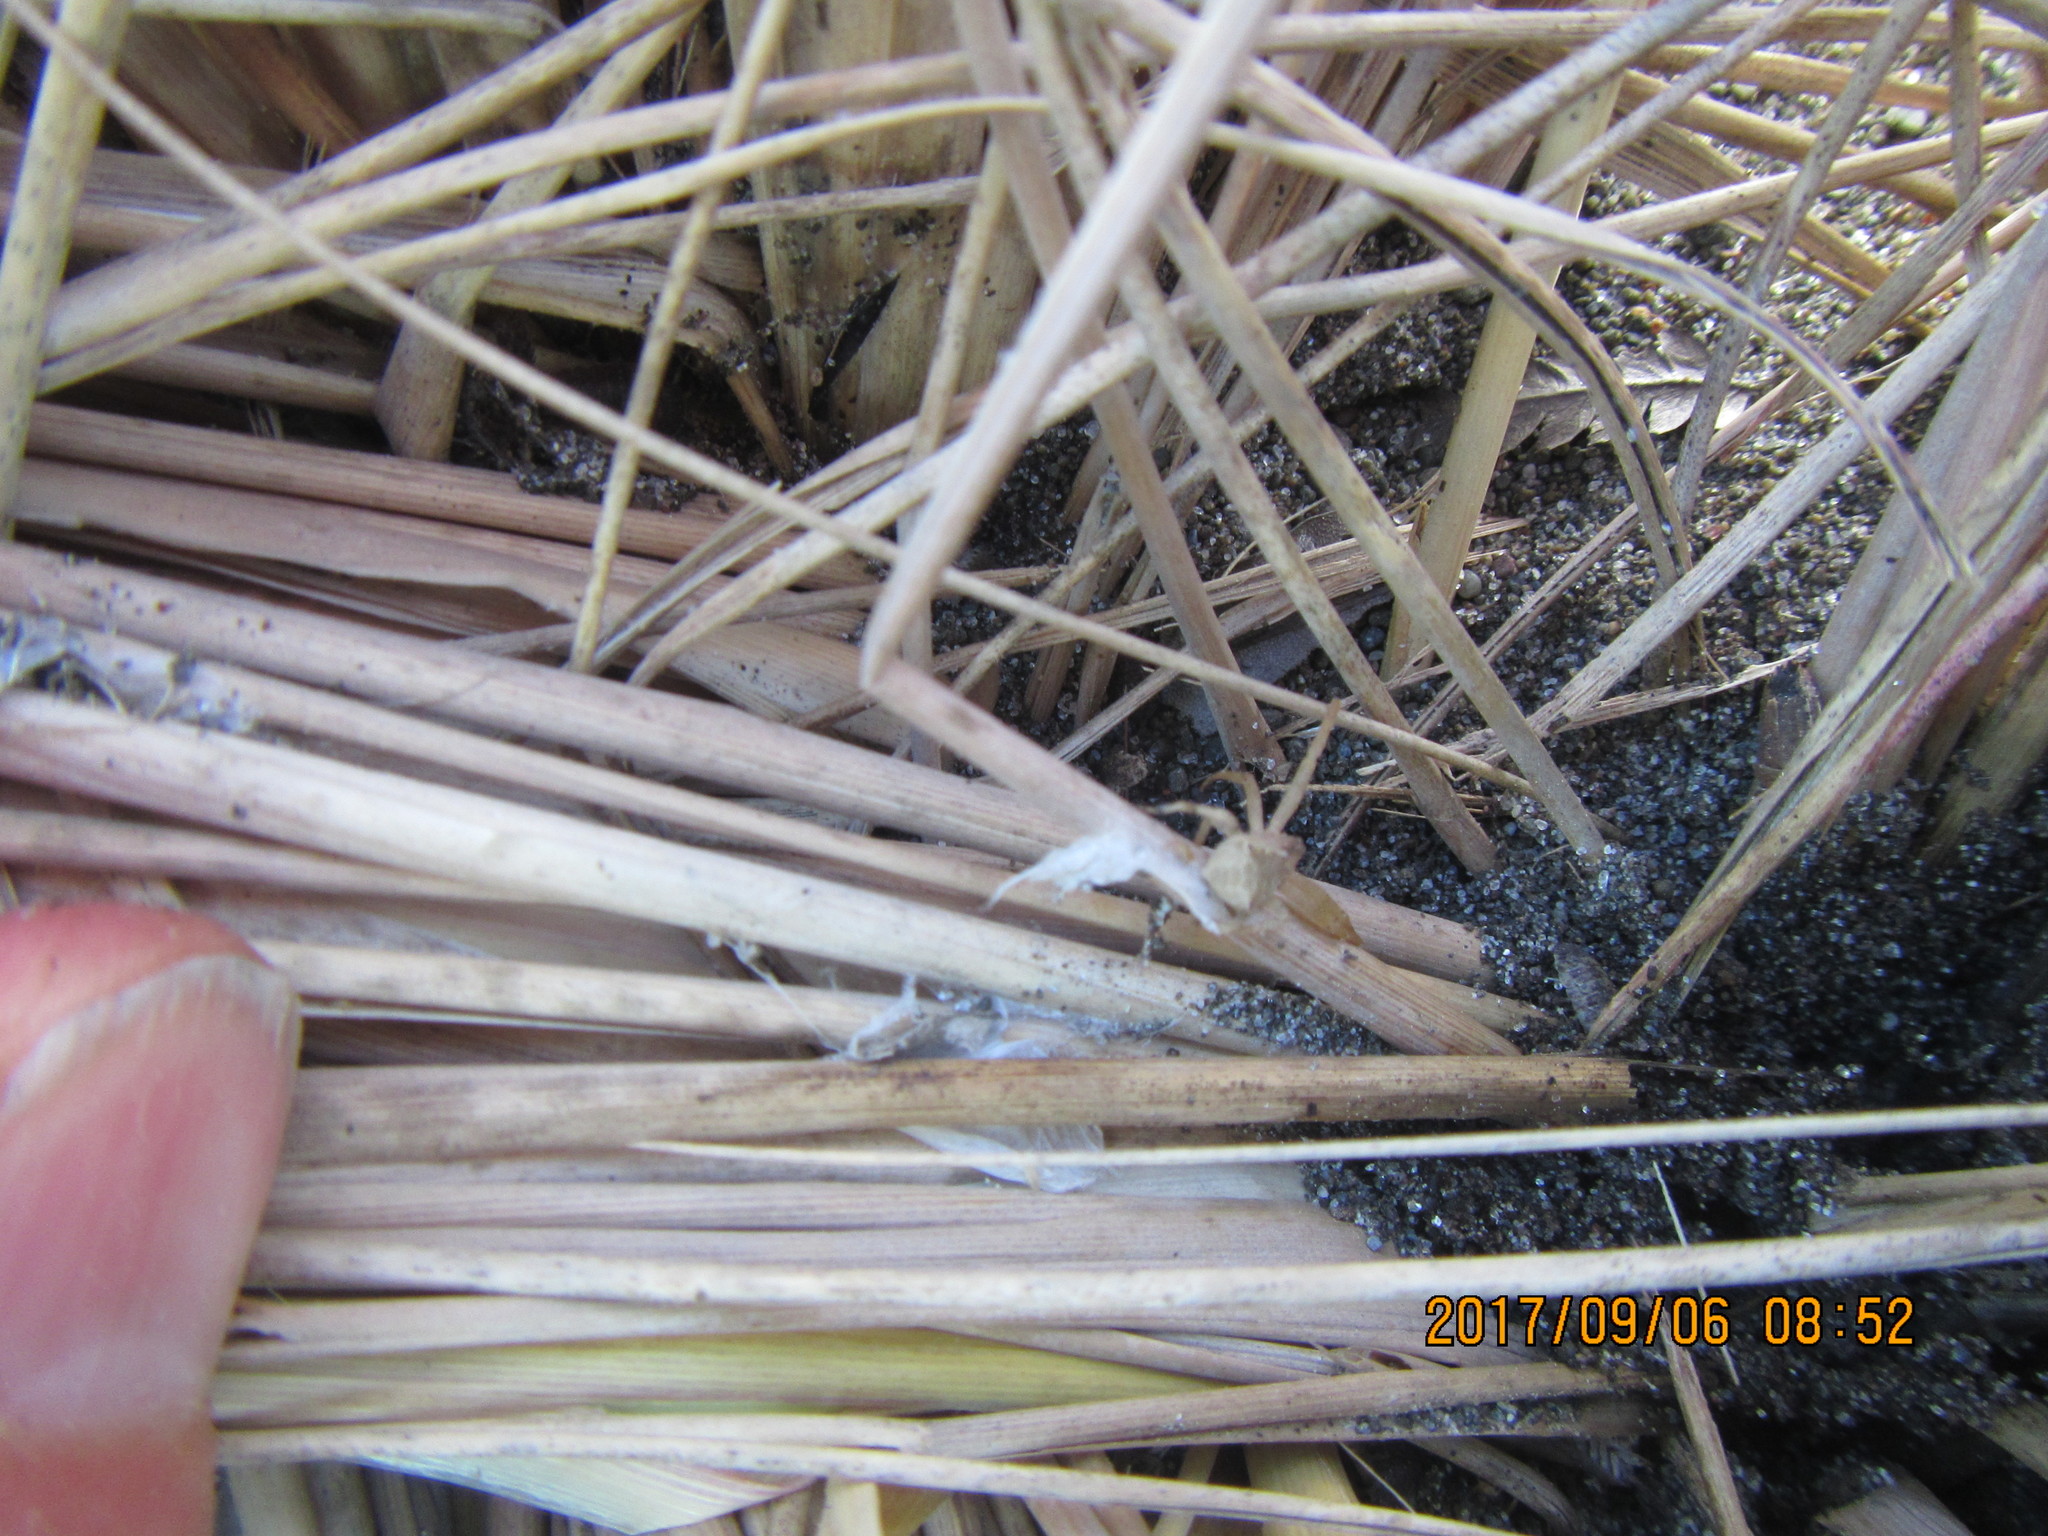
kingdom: Animalia
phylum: Arthropoda
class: Arachnida
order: Araneae
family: Thomisidae
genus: Sidymella
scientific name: Sidymella trapezia
